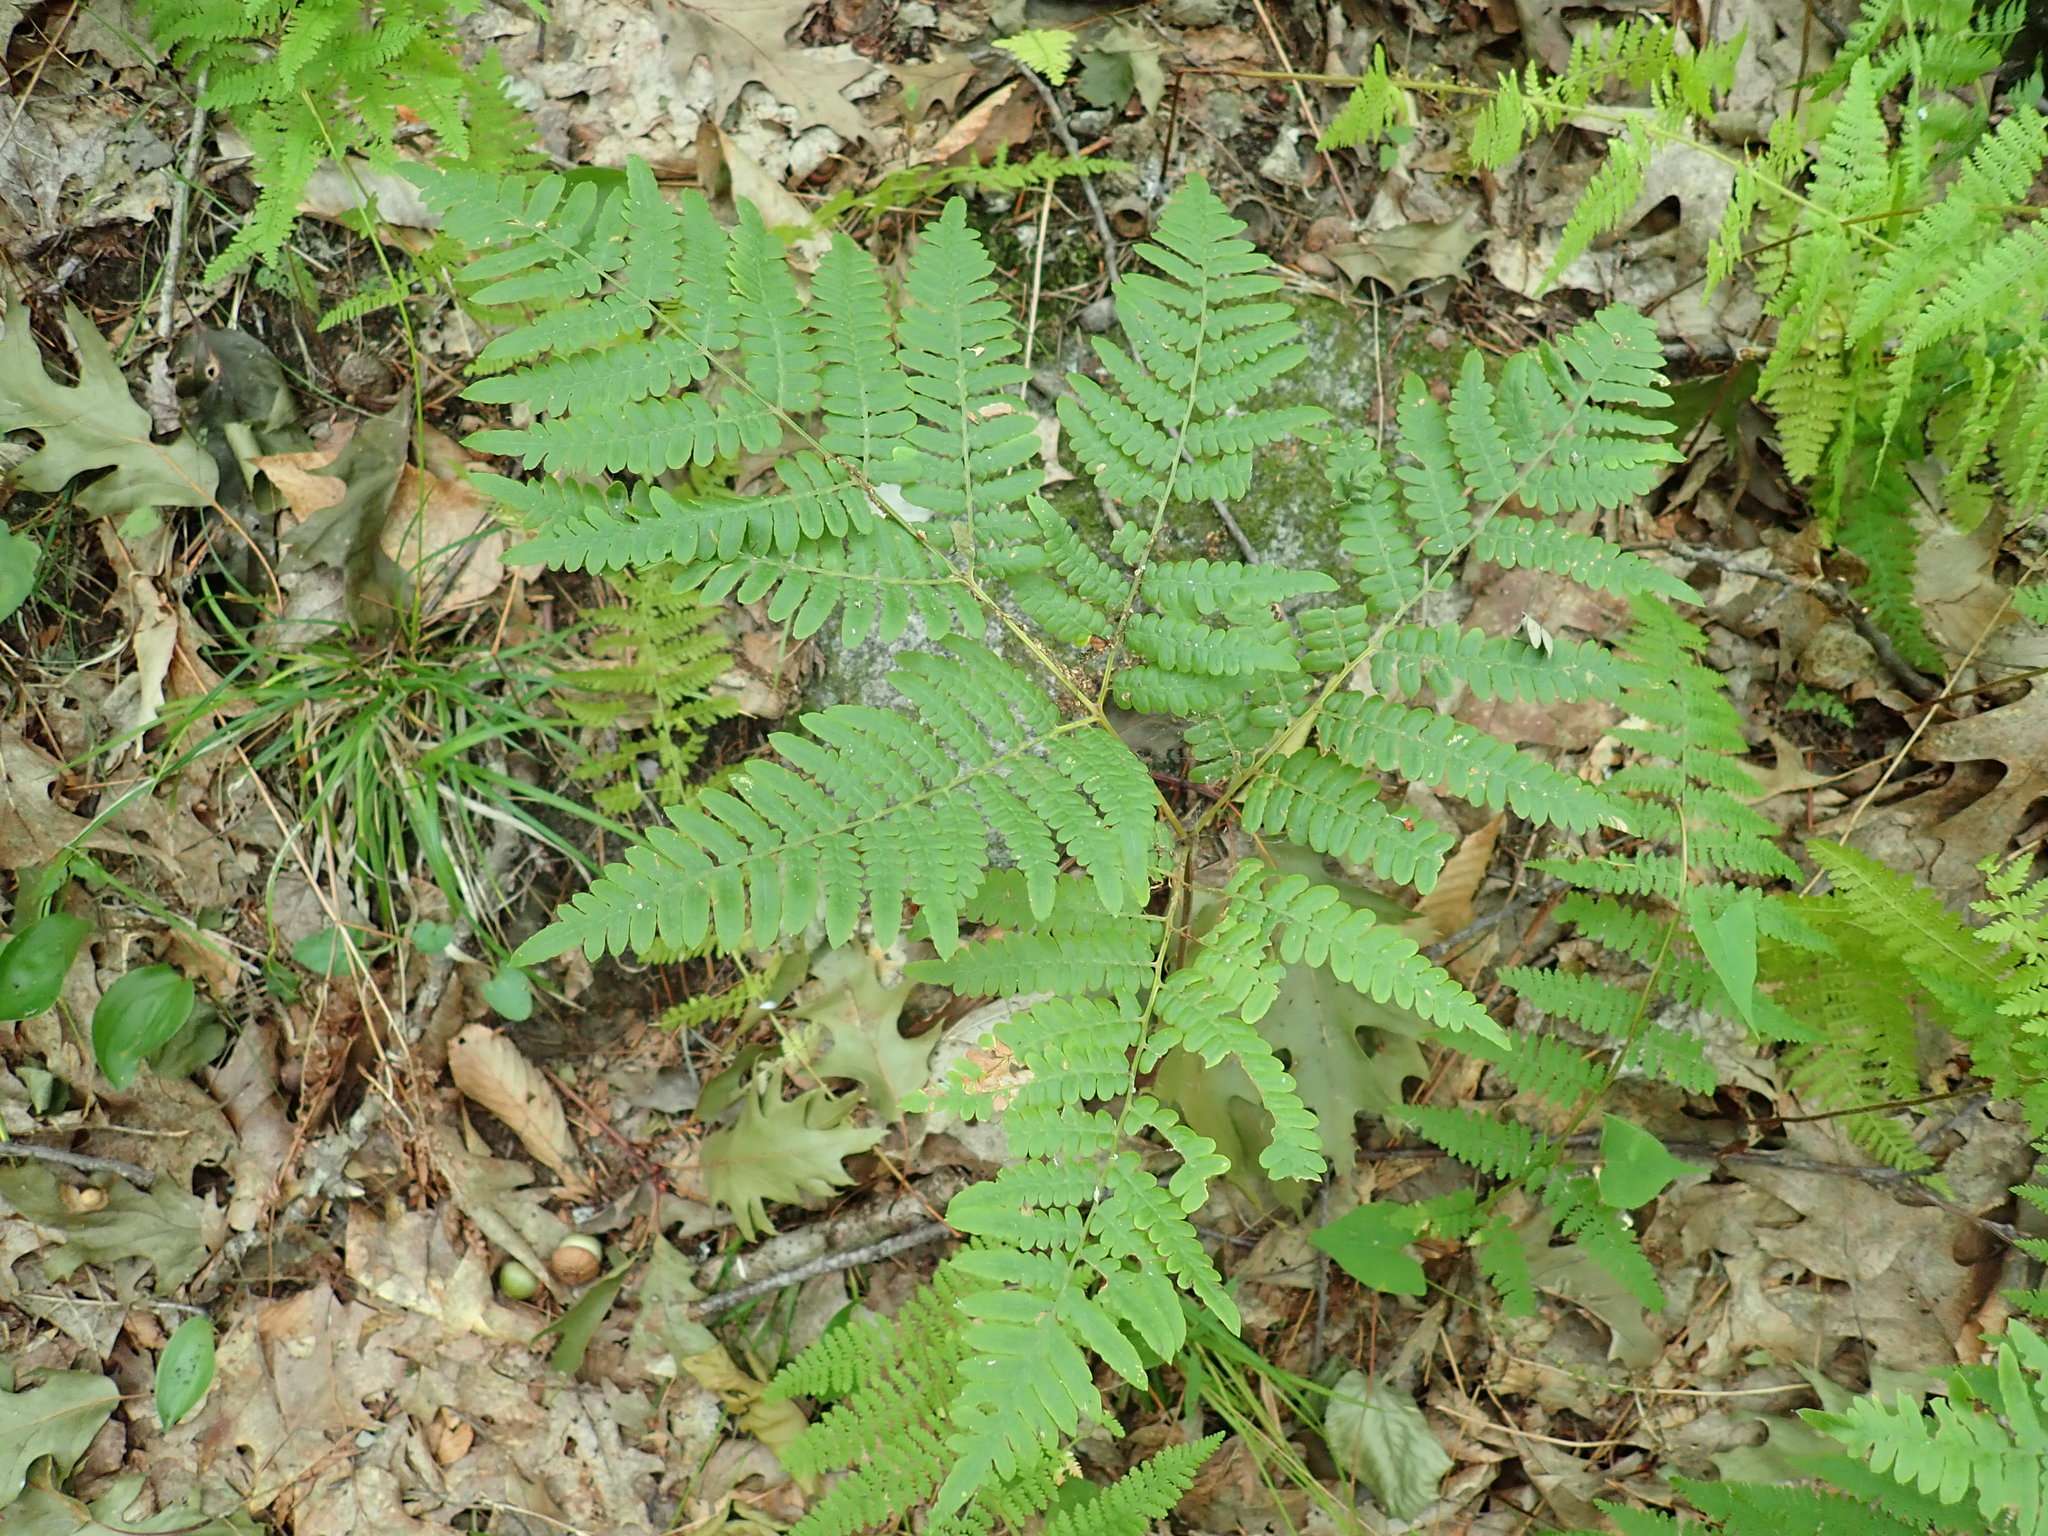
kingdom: Plantae
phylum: Tracheophyta
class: Polypodiopsida
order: Polypodiales
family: Dennstaedtiaceae
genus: Pteridium
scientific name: Pteridium aquilinum
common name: Bracken
